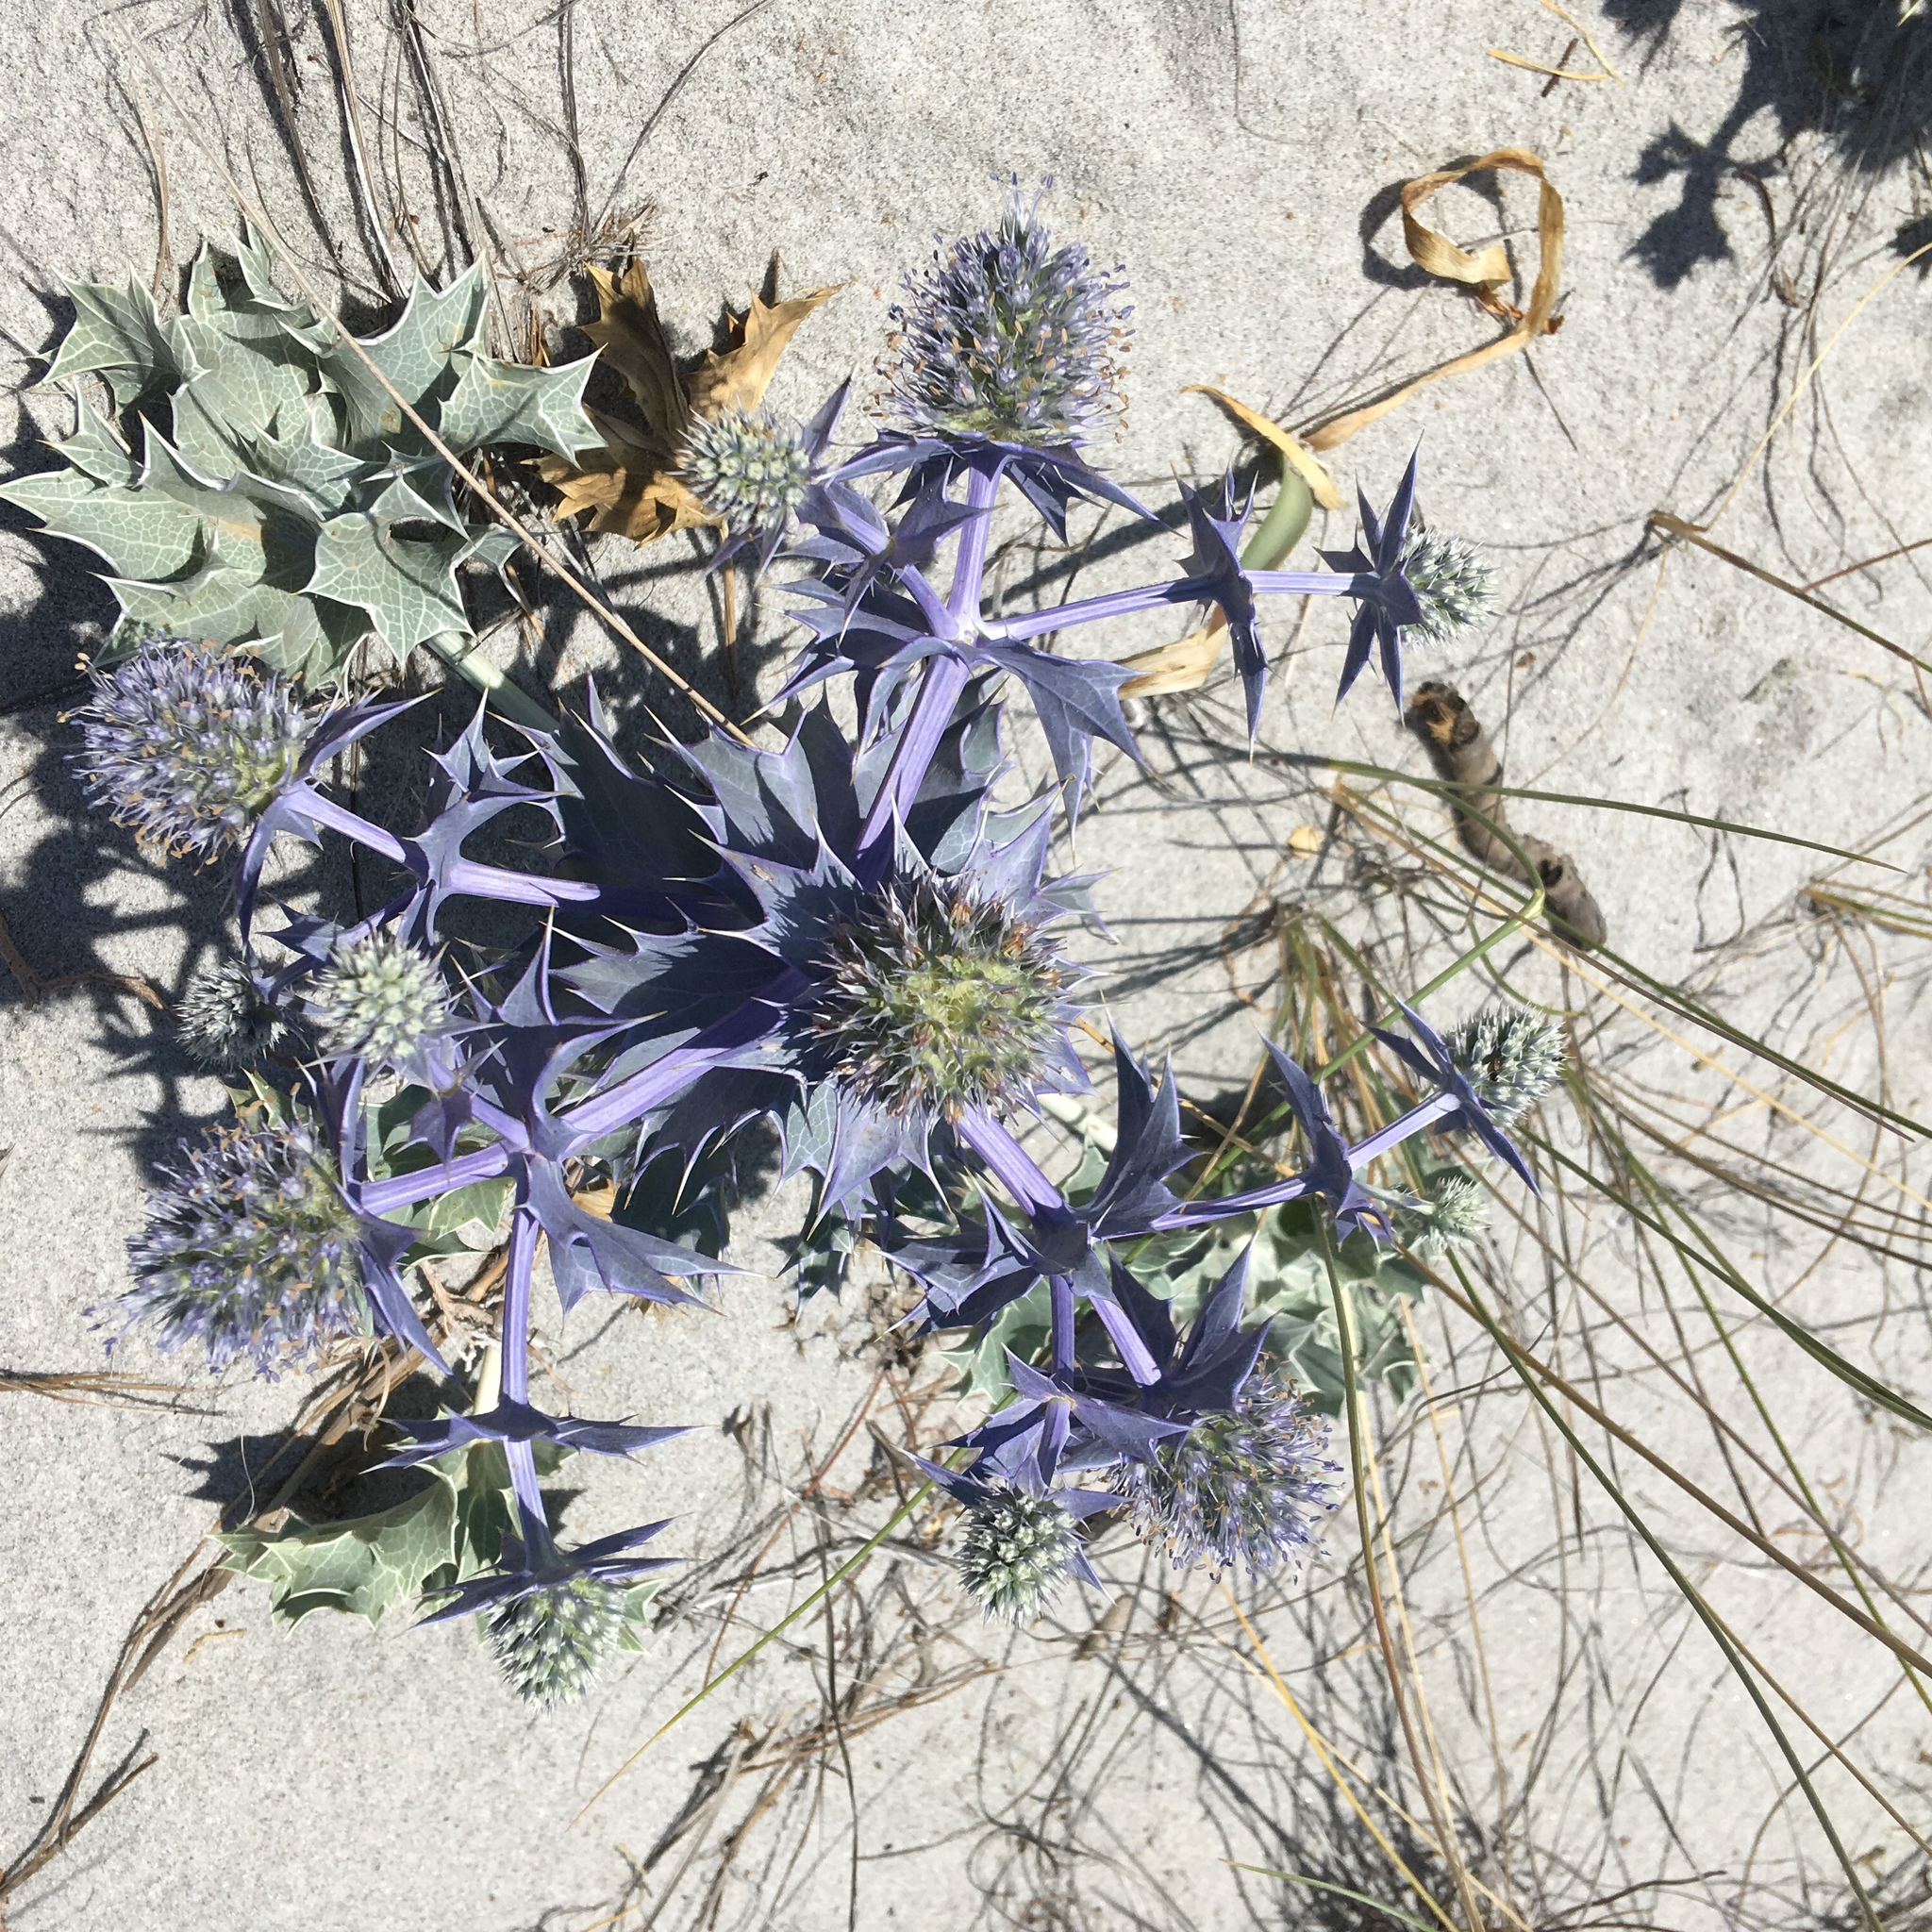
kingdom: Plantae
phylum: Tracheophyta
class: Magnoliopsida
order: Apiales
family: Apiaceae
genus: Eryngium
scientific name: Eryngium maritimum
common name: Sea-holly
